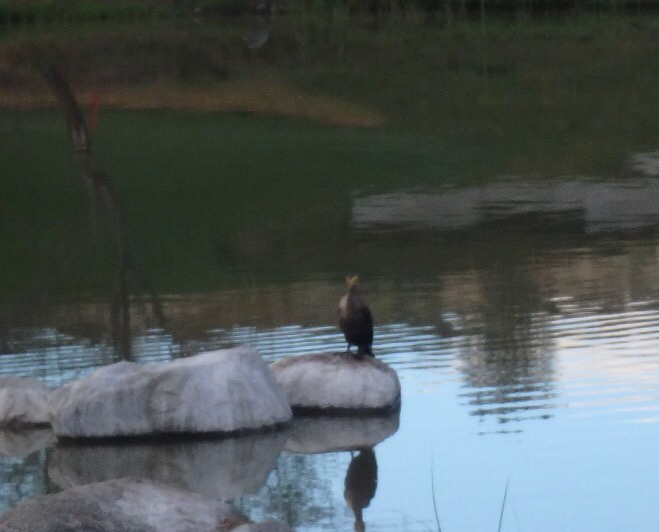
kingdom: Animalia
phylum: Chordata
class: Aves
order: Suliformes
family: Phalacrocoracidae
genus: Phalacrocorax
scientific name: Phalacrocorax auritus
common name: Double-crested cormorant
